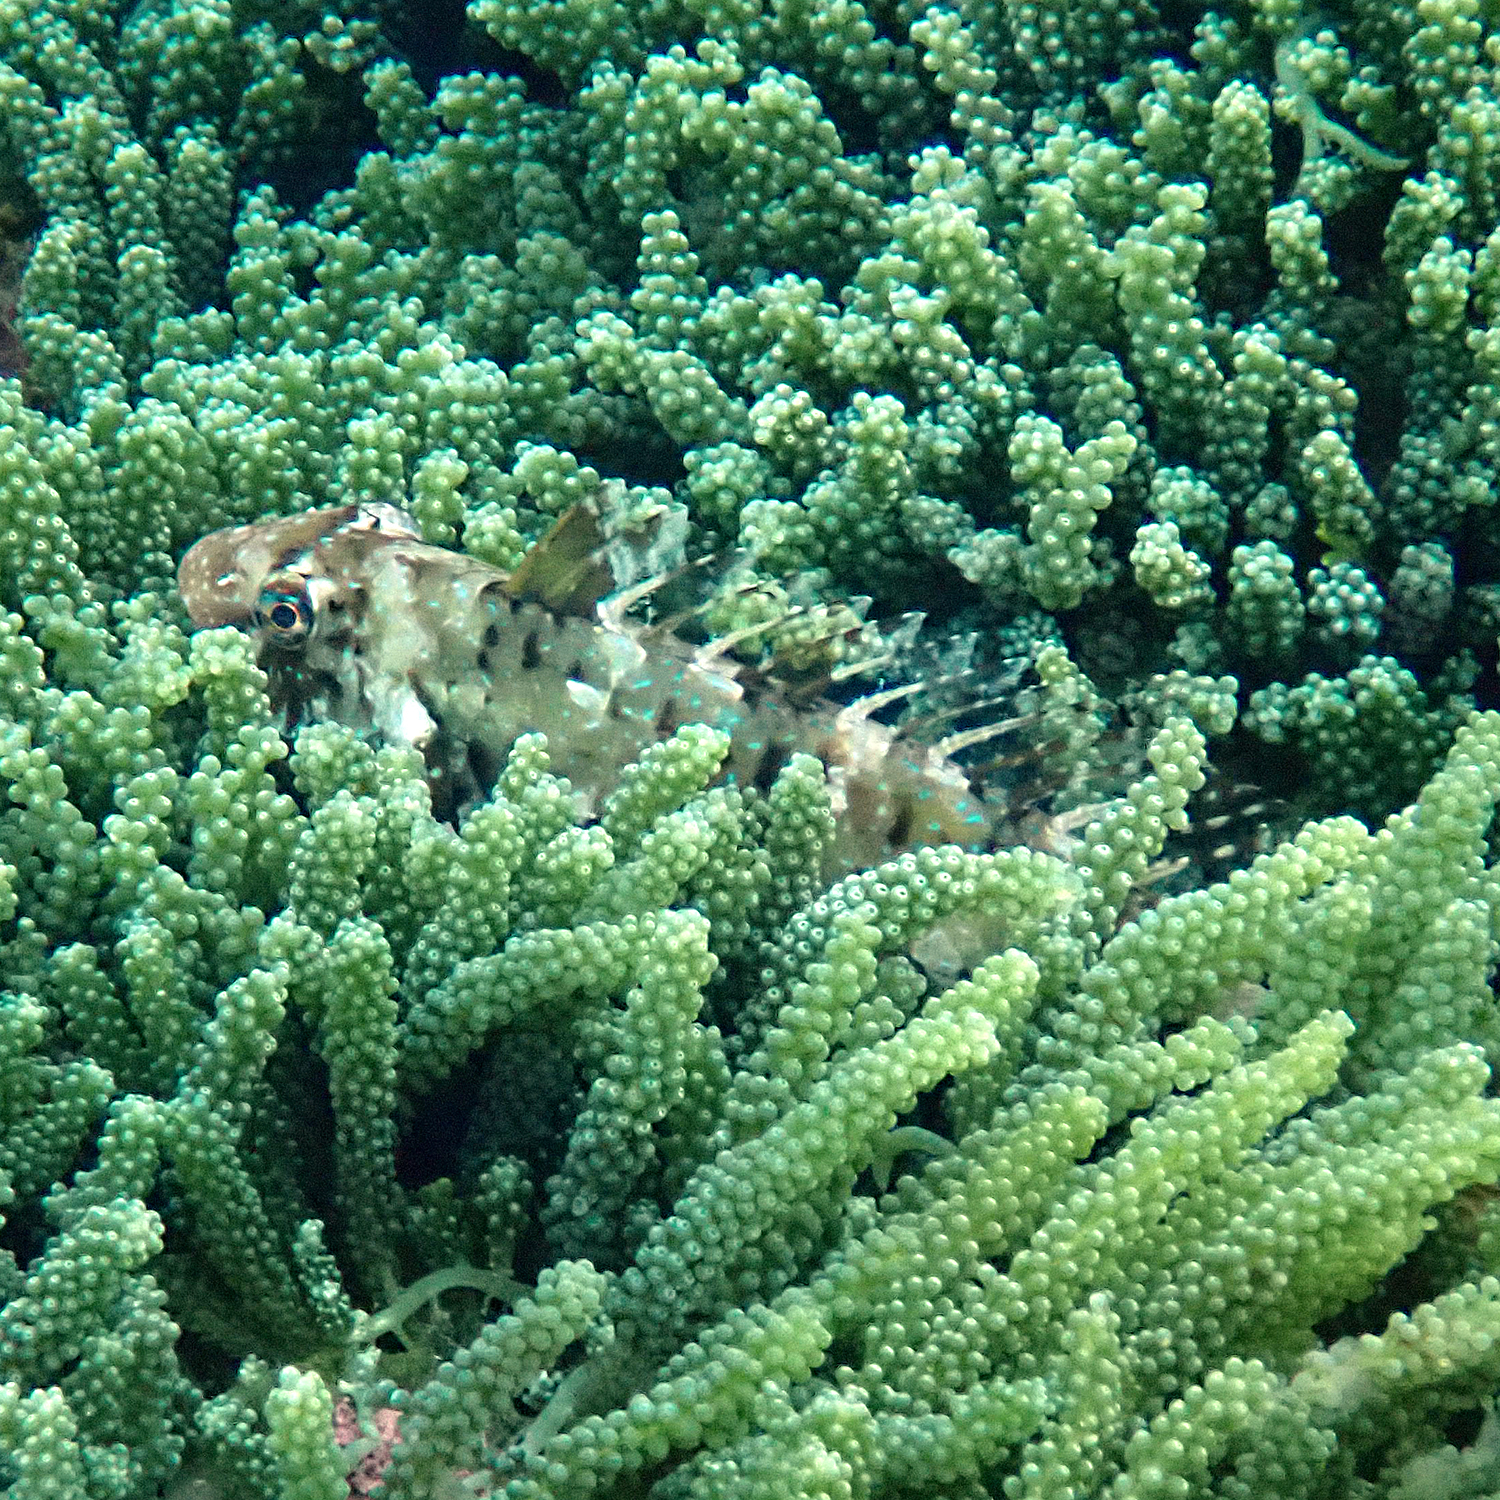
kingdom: Animalia
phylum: Chordata
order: Perciformes
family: Scaridae
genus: Leptoscarus
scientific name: Leptoscarus vaigiensis
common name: Marbled parrotfish
